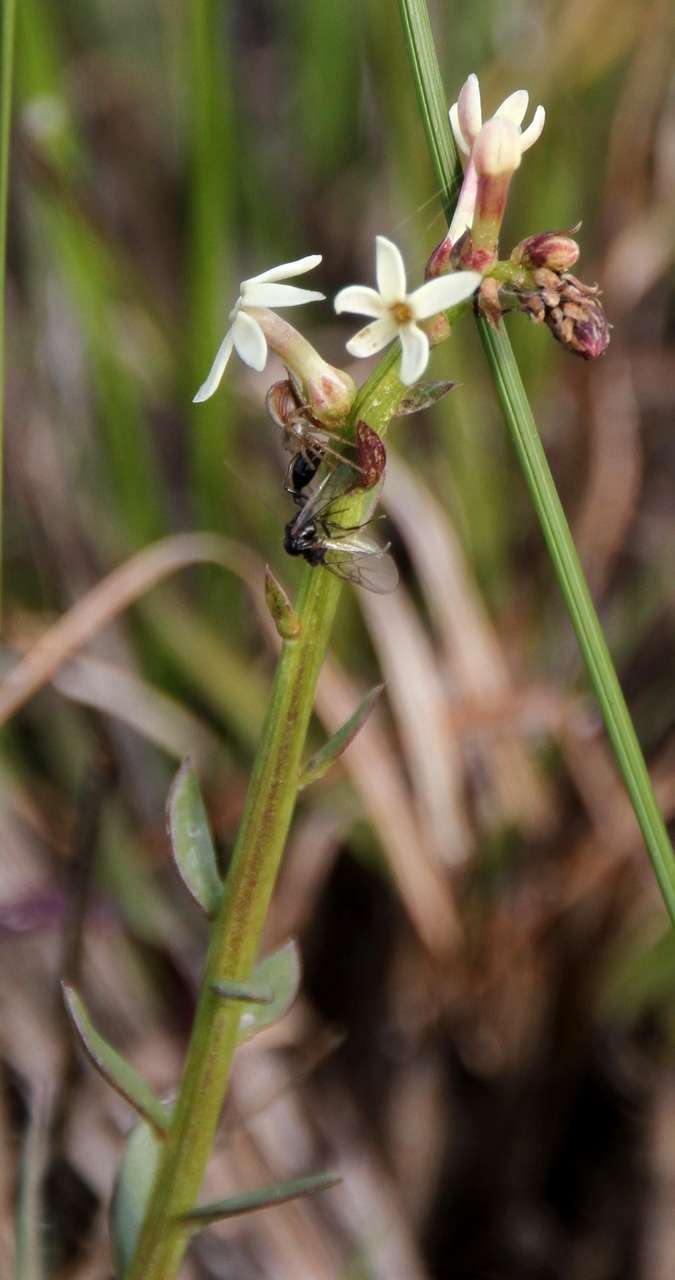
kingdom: Plantae
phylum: Tracheophyta
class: Magnoliopsida
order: Celastrales
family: Celastraceae
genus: Stackhousia
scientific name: Stackhousia subterranea
